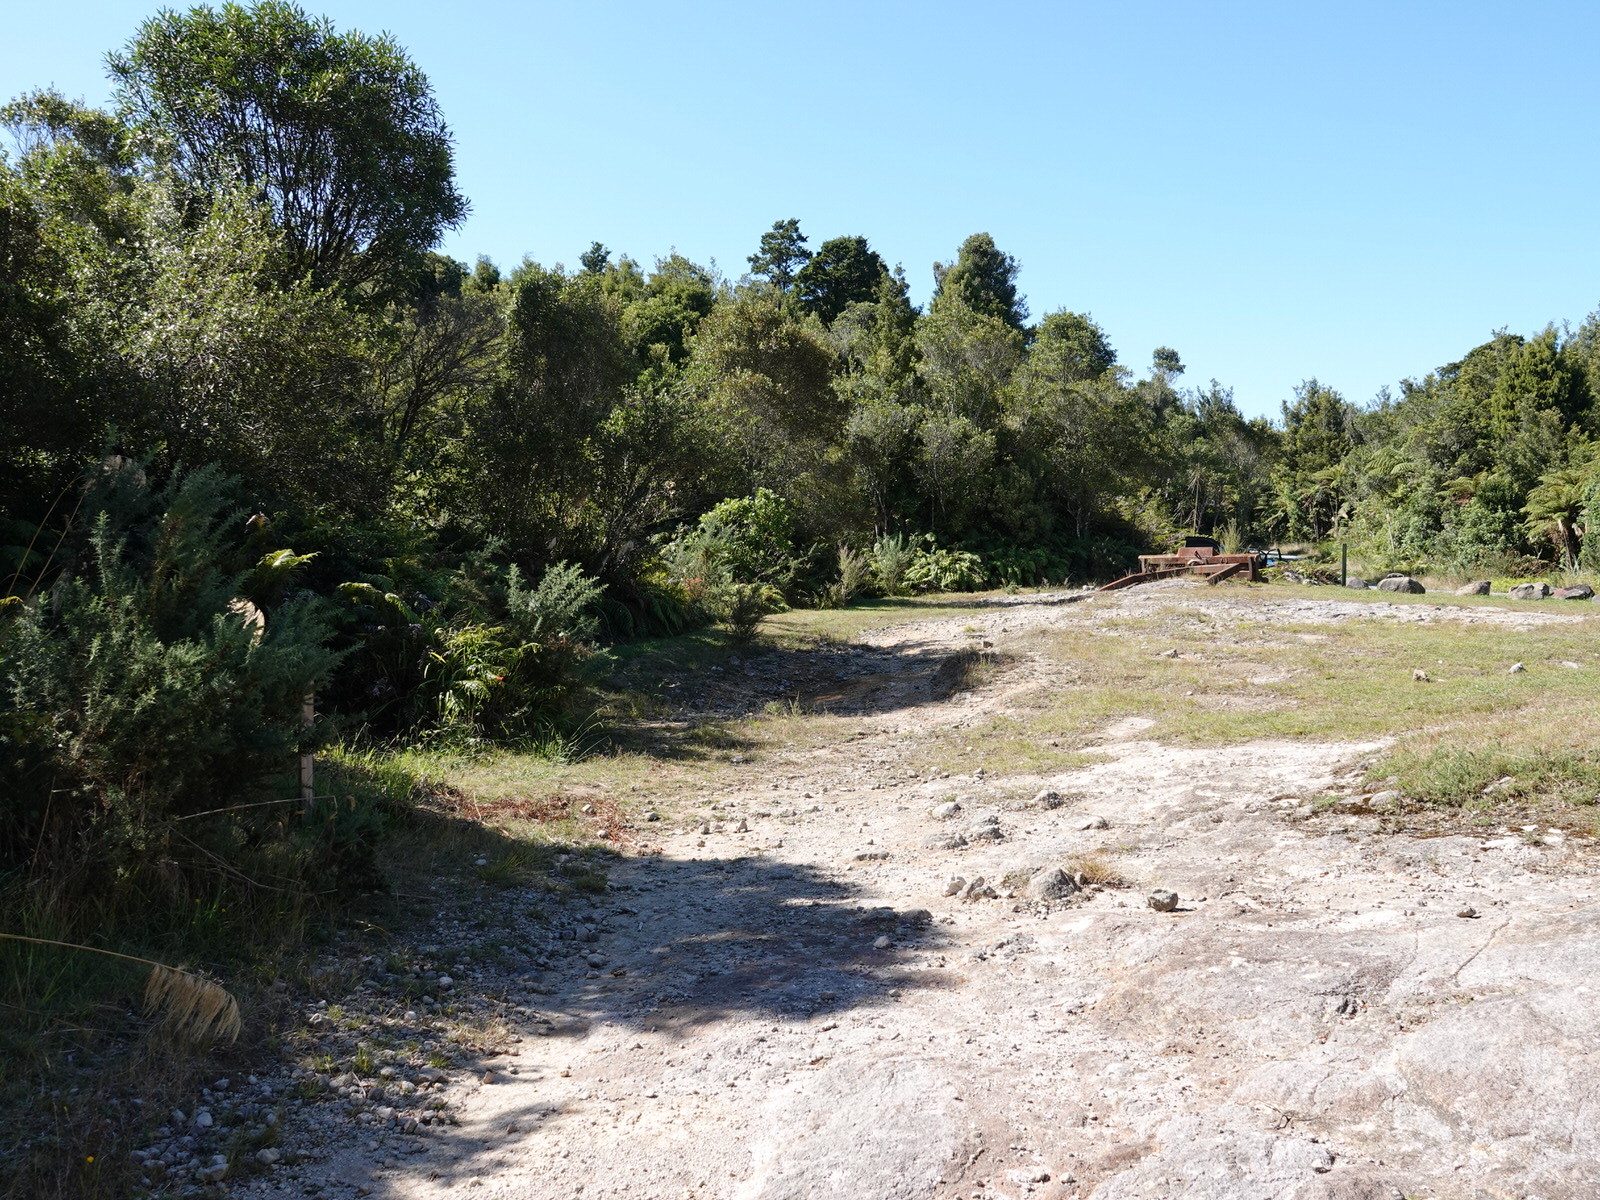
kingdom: Animalia
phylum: Chordata
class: Aves
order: Galliformes
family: Phasianidae
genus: Synoicus
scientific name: Synoicus ypsilophorus
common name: Brown quail
